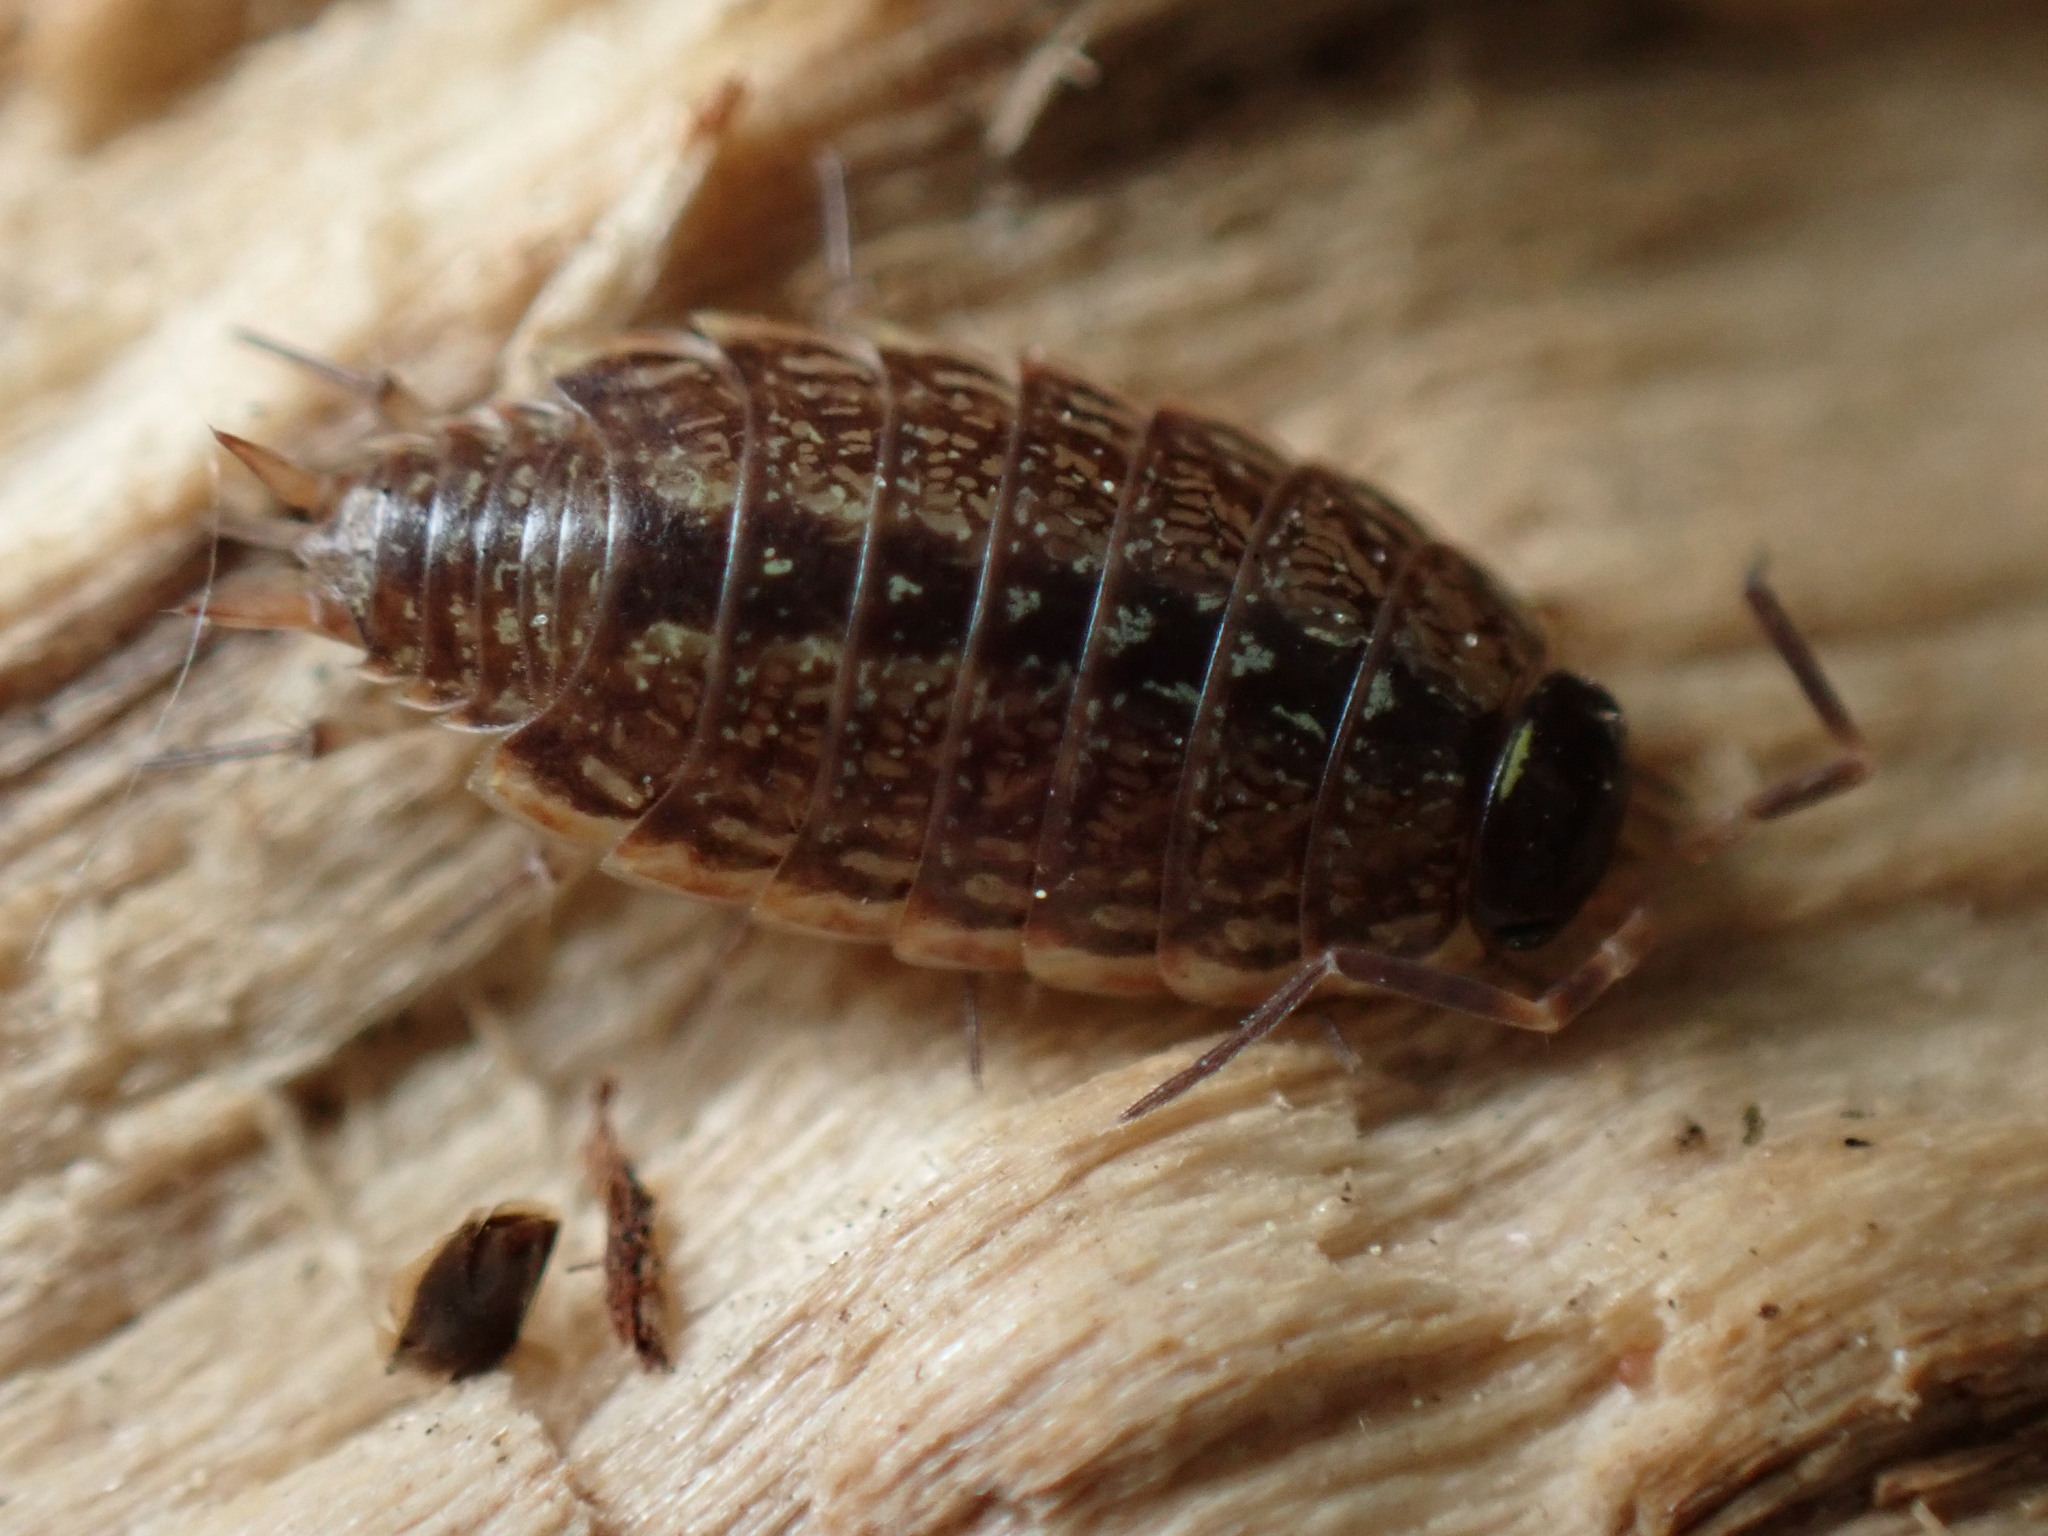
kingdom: Animalia
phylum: Arthropoda
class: Malacostraca
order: Isopoda
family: Philosciidae
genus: Philoscia
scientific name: Philoscia muscorum
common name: Common striped woodlouse
